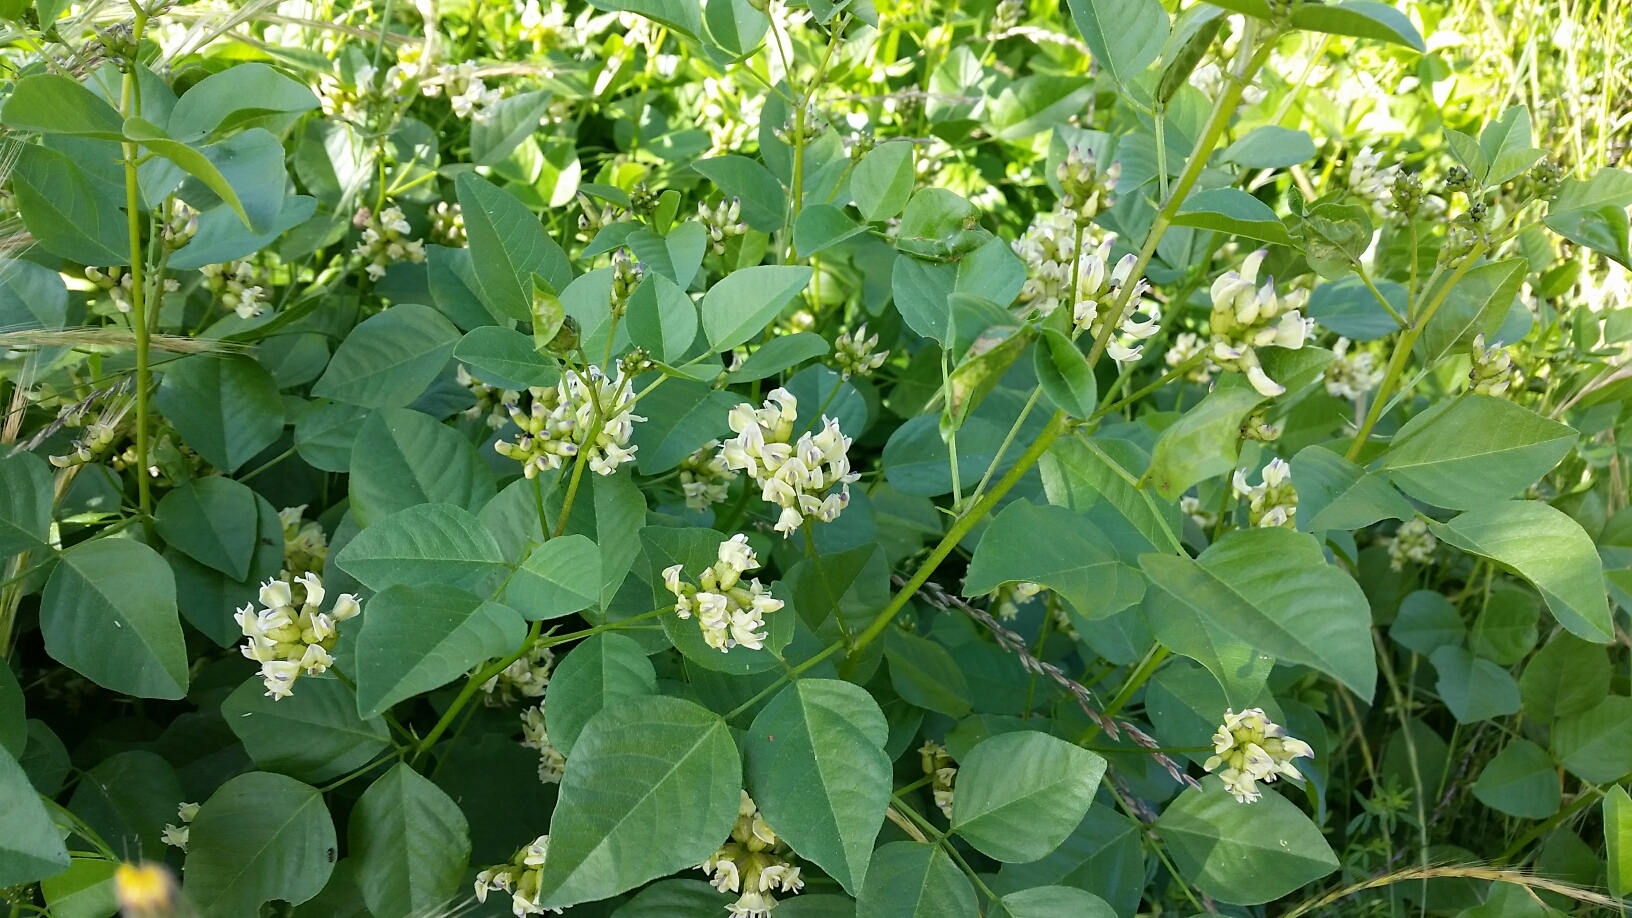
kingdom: Plantae
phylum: Tracheophyta
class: Magnoliopsida
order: Fabales
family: Fabaceae
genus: Rupertia
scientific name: Rupertia physodes
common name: California-tea
